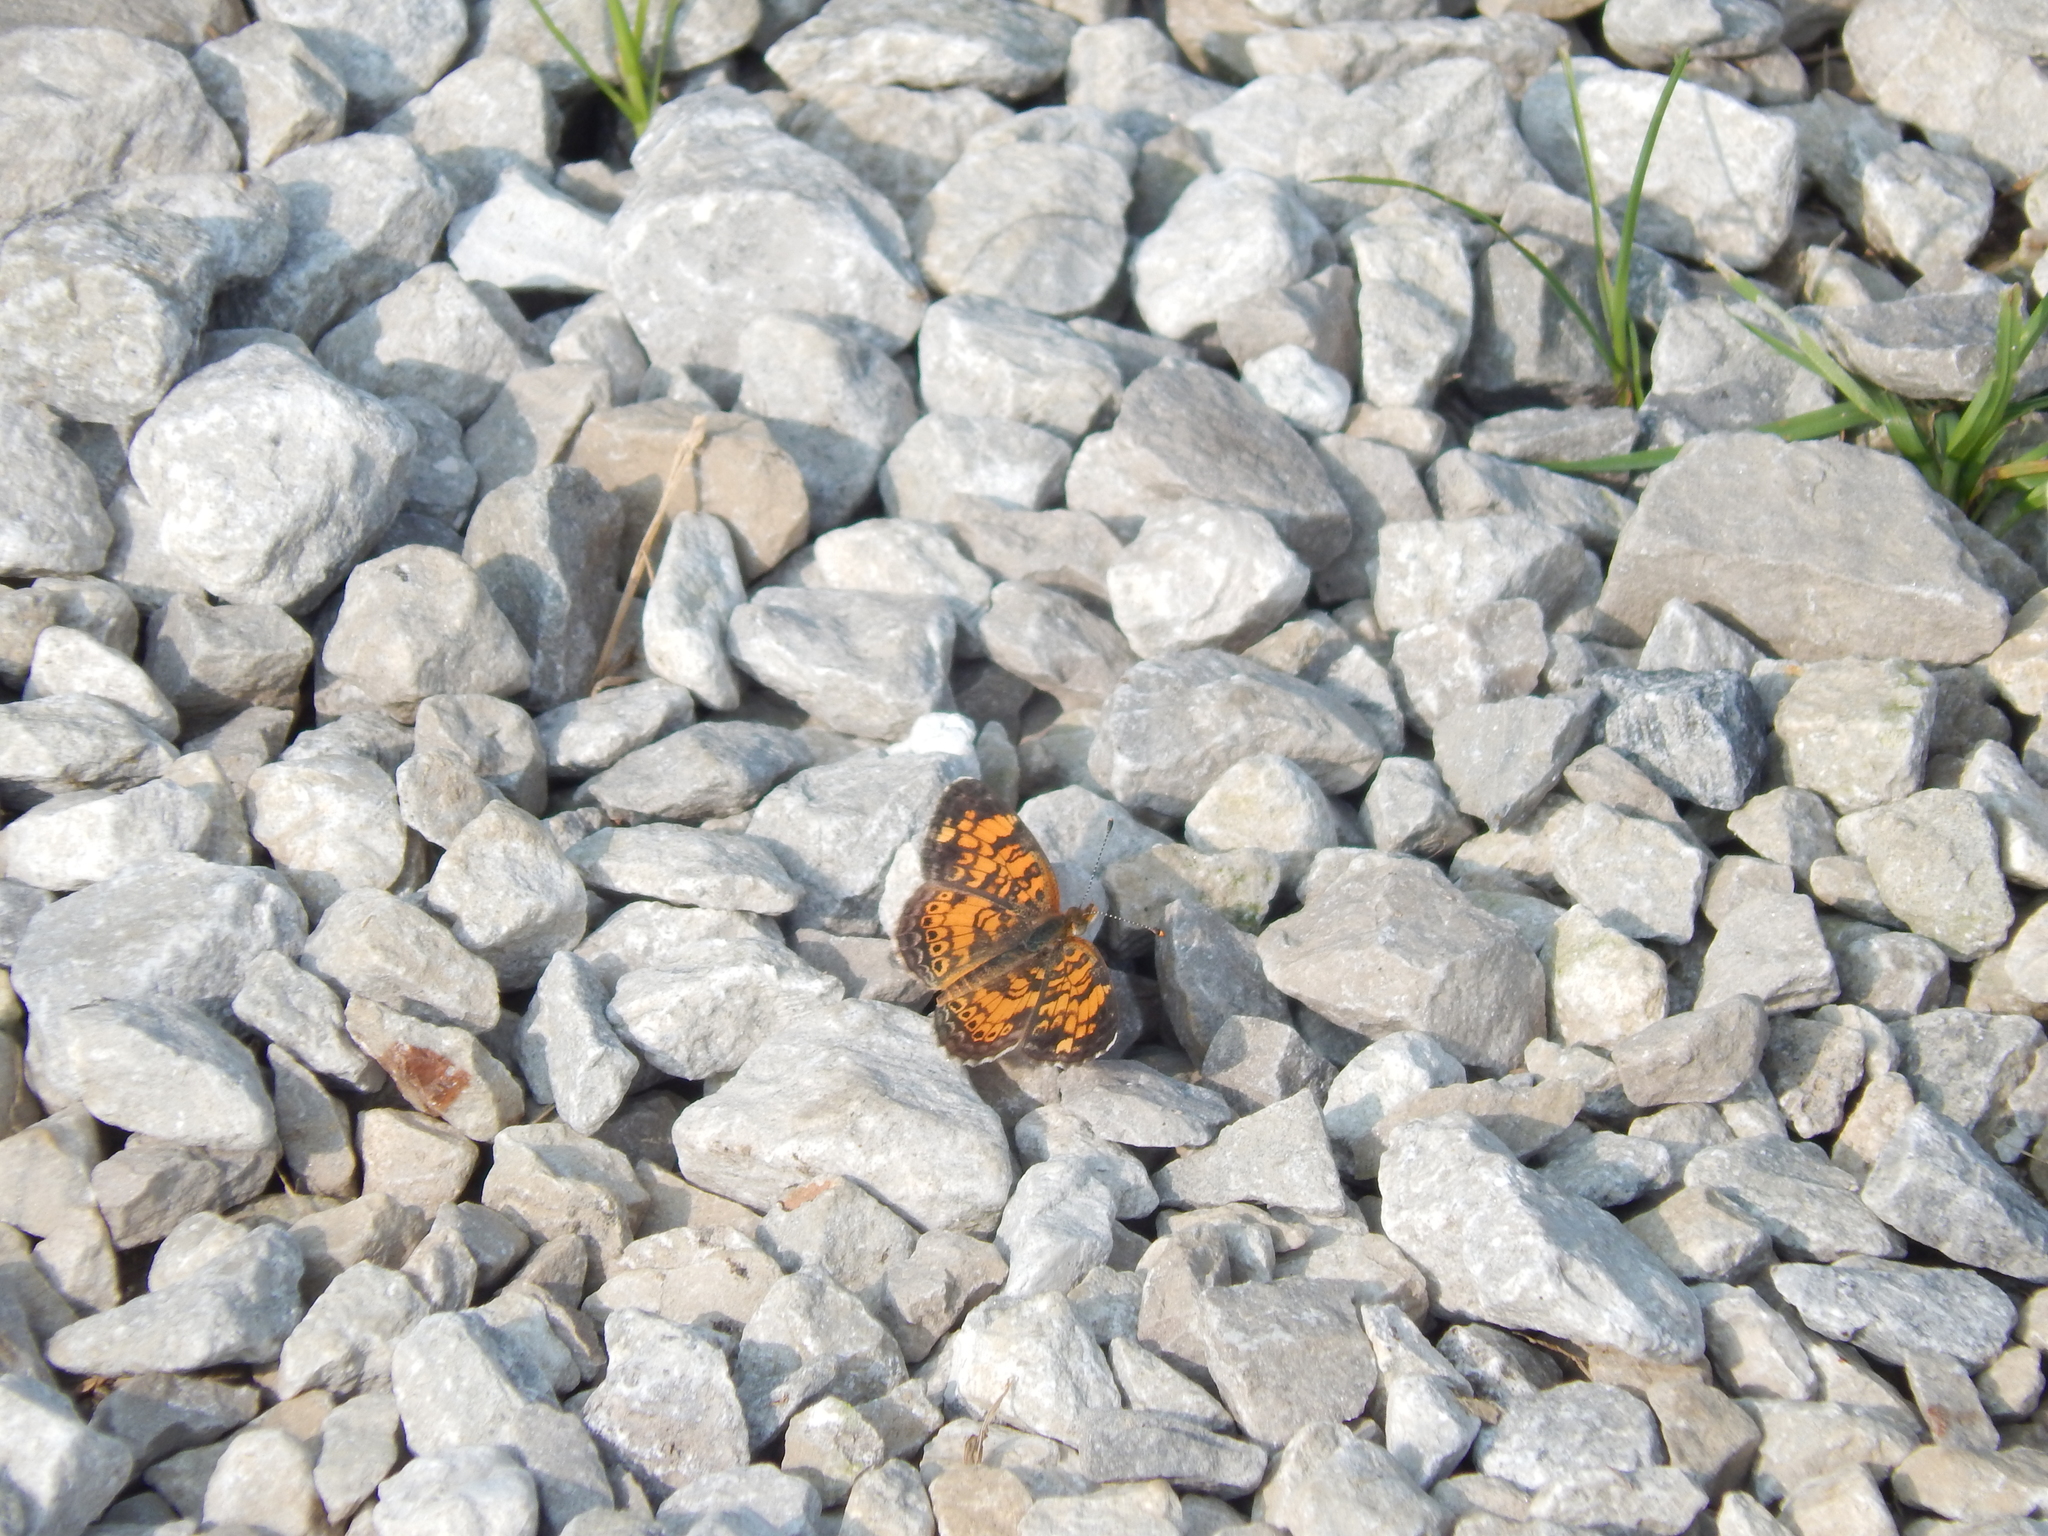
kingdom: Animalia
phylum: Arthropoda
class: Insecta
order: Lepidoptera
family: Nymphalidae
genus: Phyciodes
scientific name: Phyciodes tharos
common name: Pearl crescent
